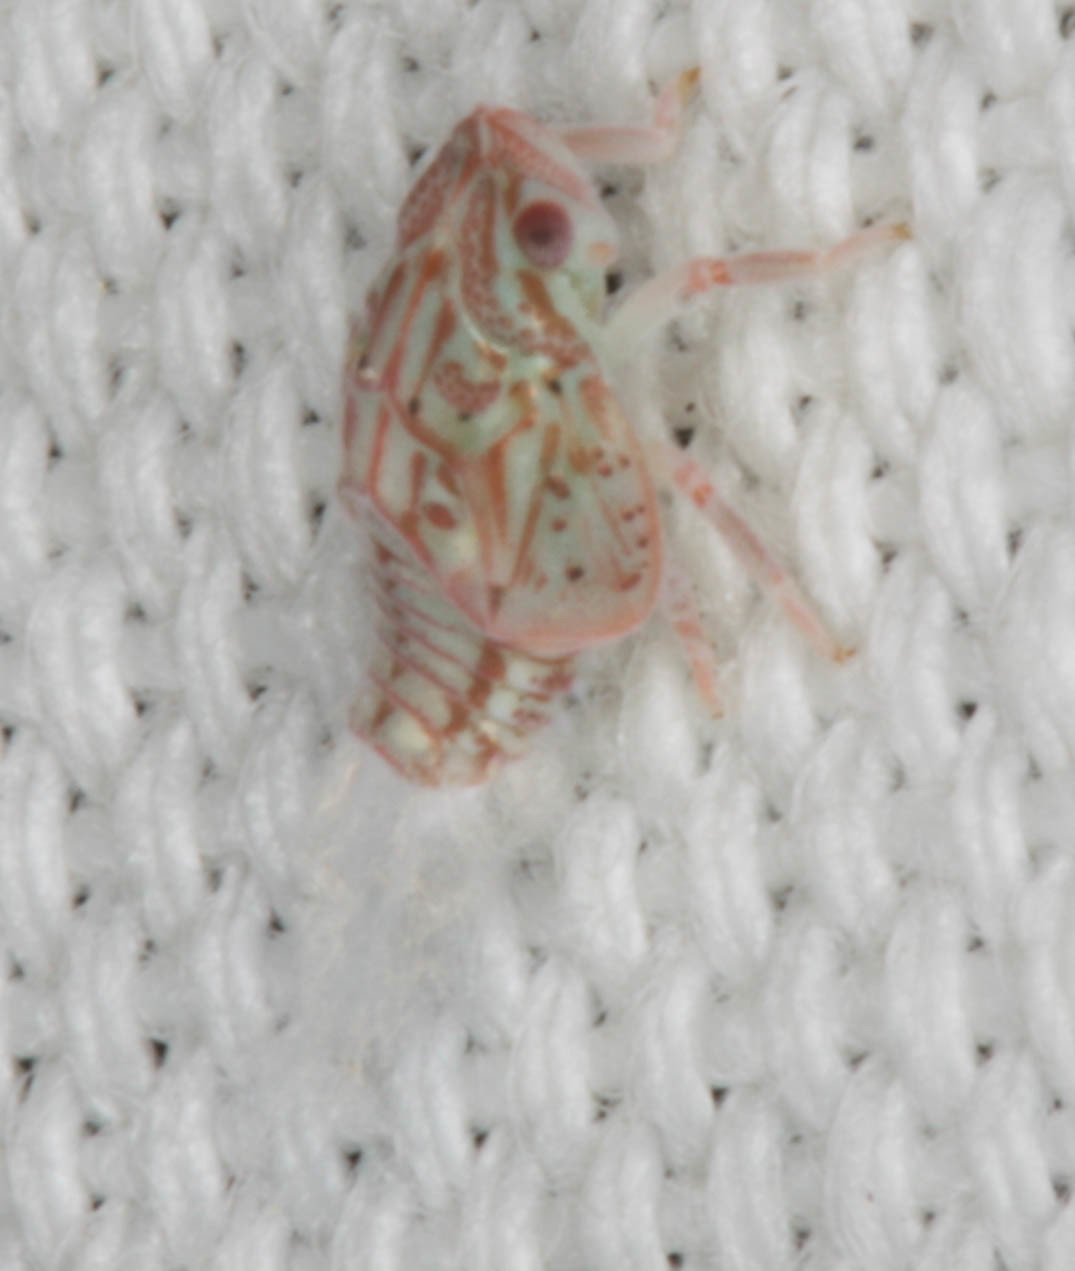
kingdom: Animalia
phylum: Arthropoda
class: Insecta
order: Hemiptera
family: Flatidae
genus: Siphanta
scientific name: Siphanta acuta
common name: Torpedo bug
